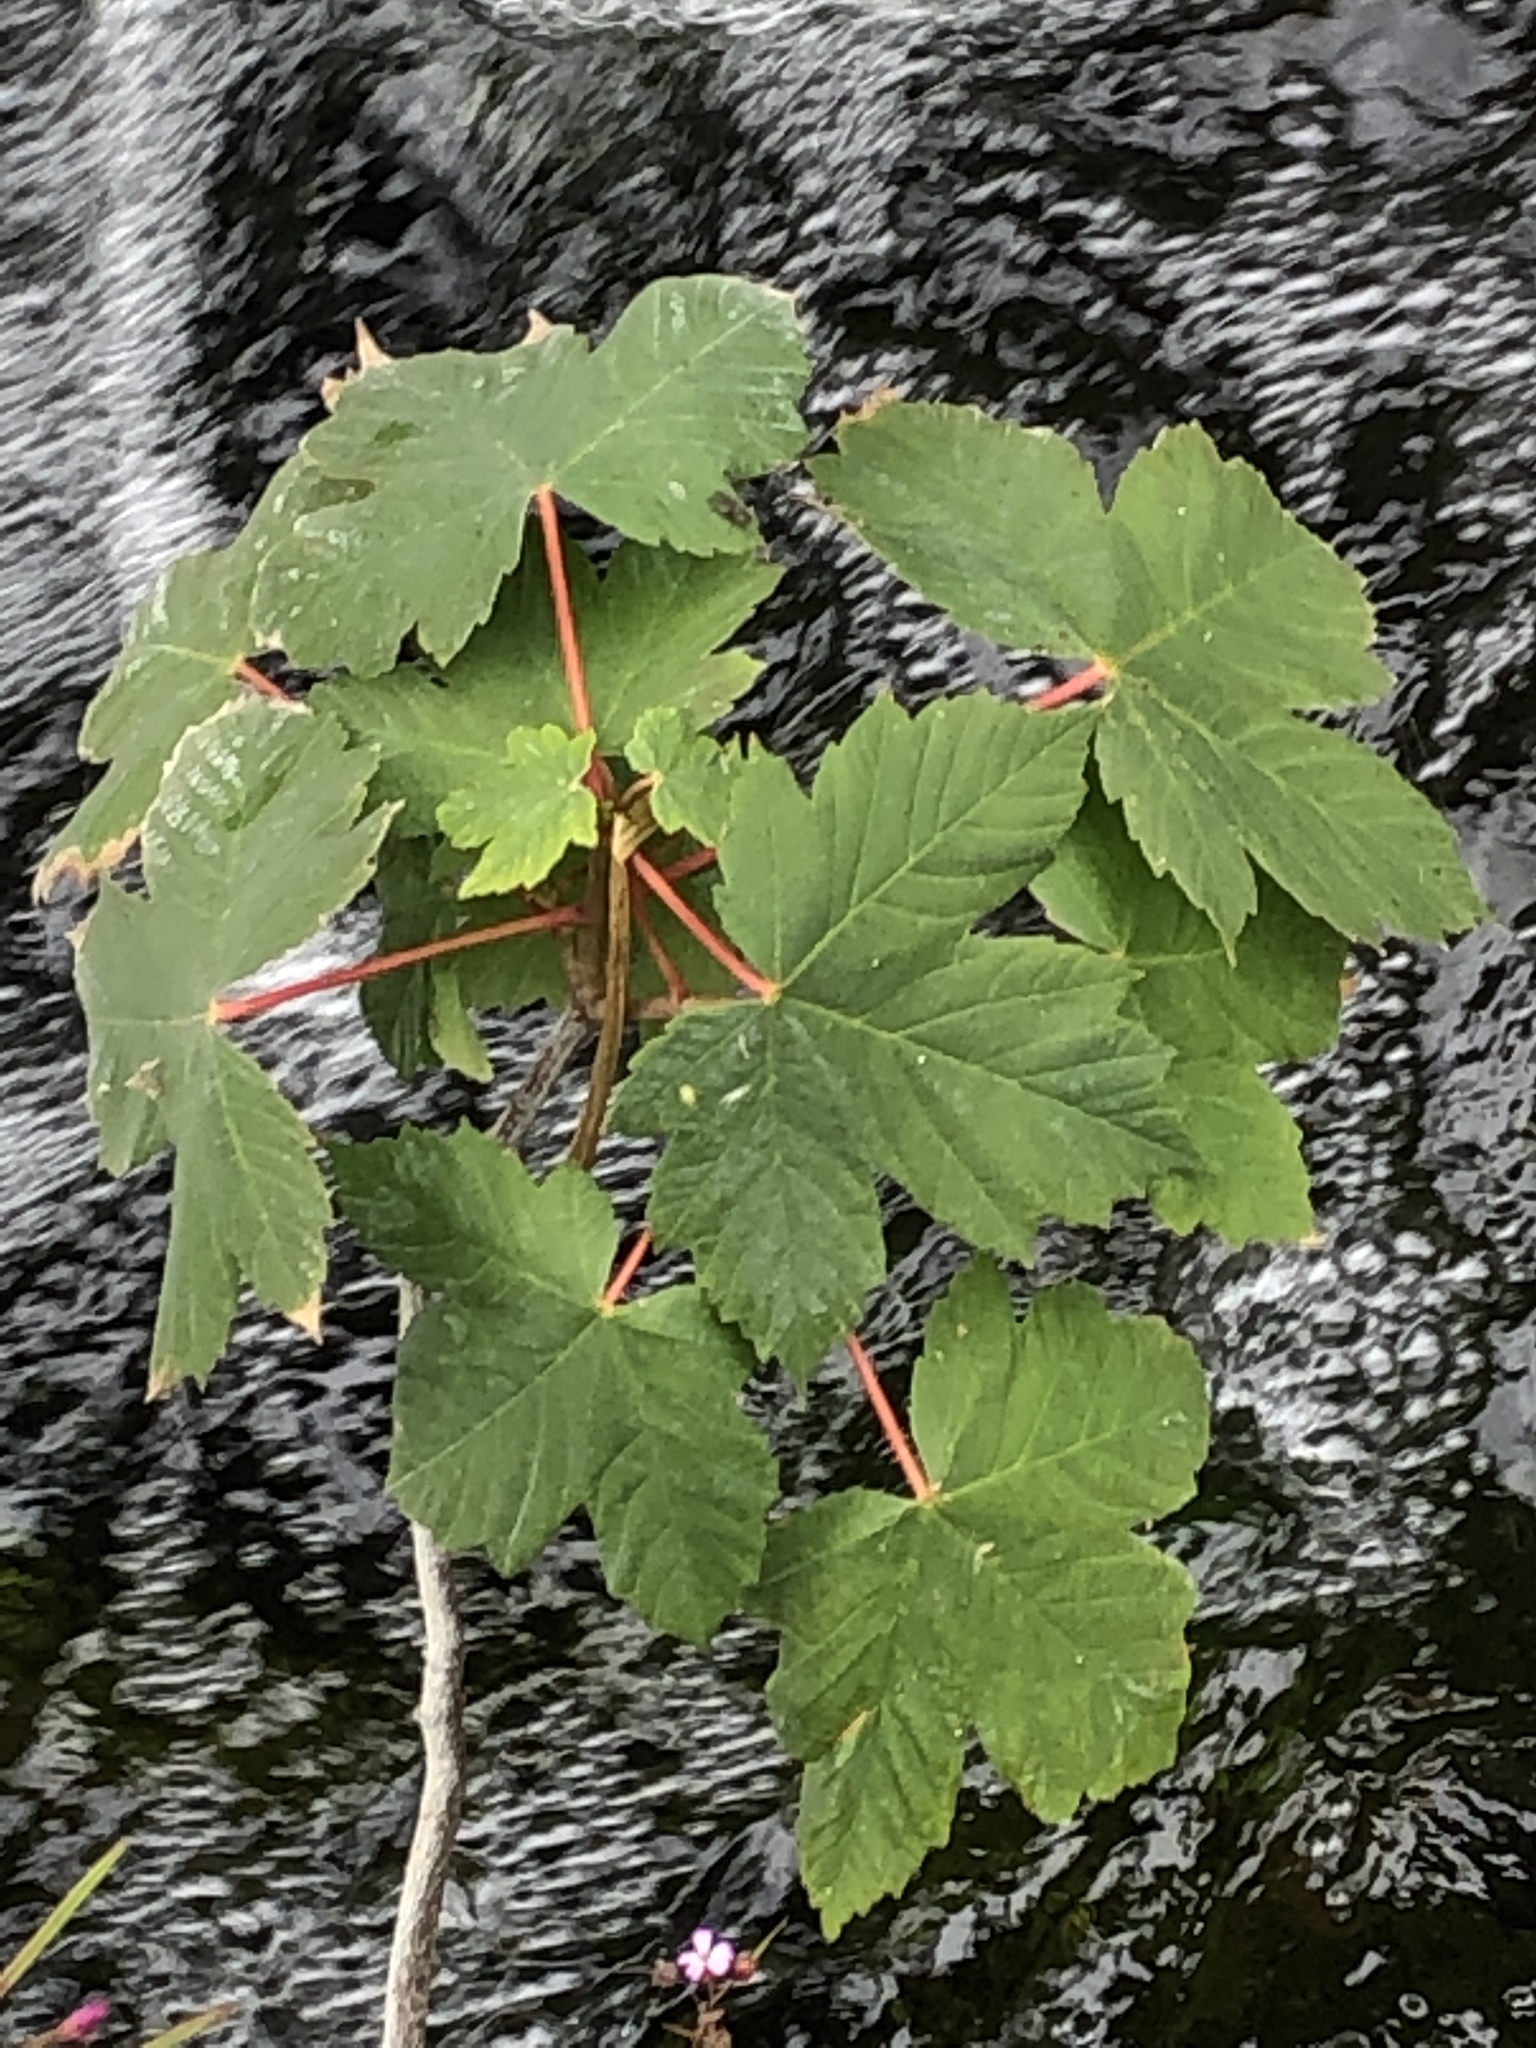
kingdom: Plantae
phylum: Tracheophyta
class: Magnoliopsida
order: Sapindales
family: Sapindaceae
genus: Acer
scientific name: Acer pseudoplatanus
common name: Sycamore
